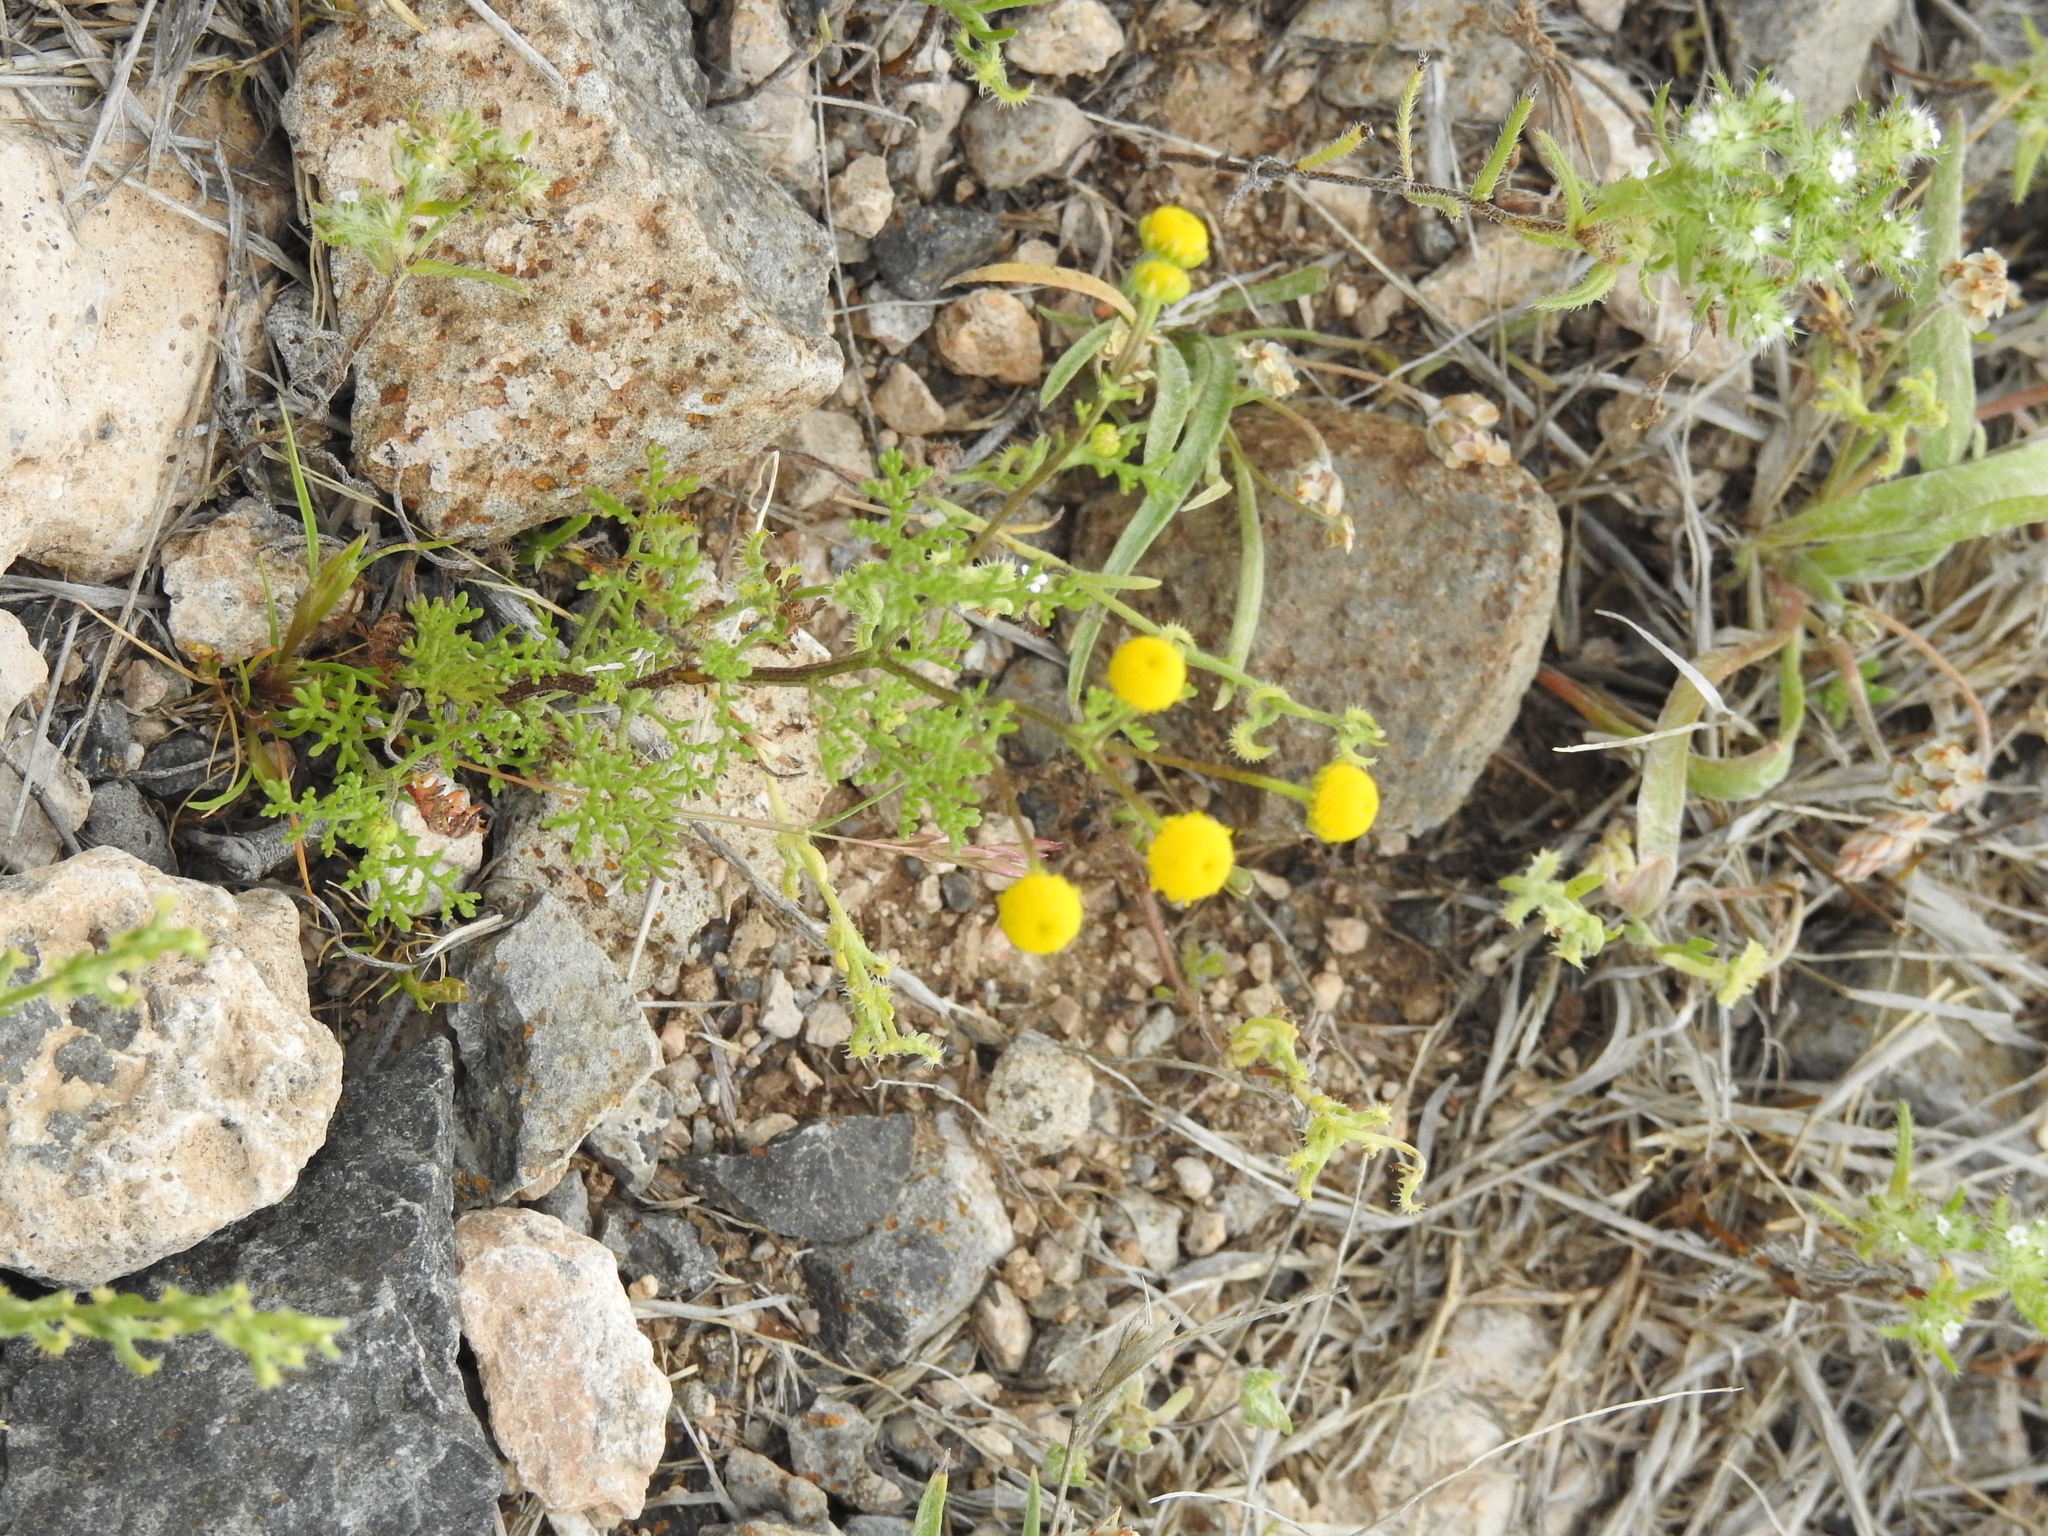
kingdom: Plantae
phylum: Tracheophyta
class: Magnoliopsida
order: Asterales
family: Asteraceae
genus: Oncosiphon
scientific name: Oncosiphon pilulifer
